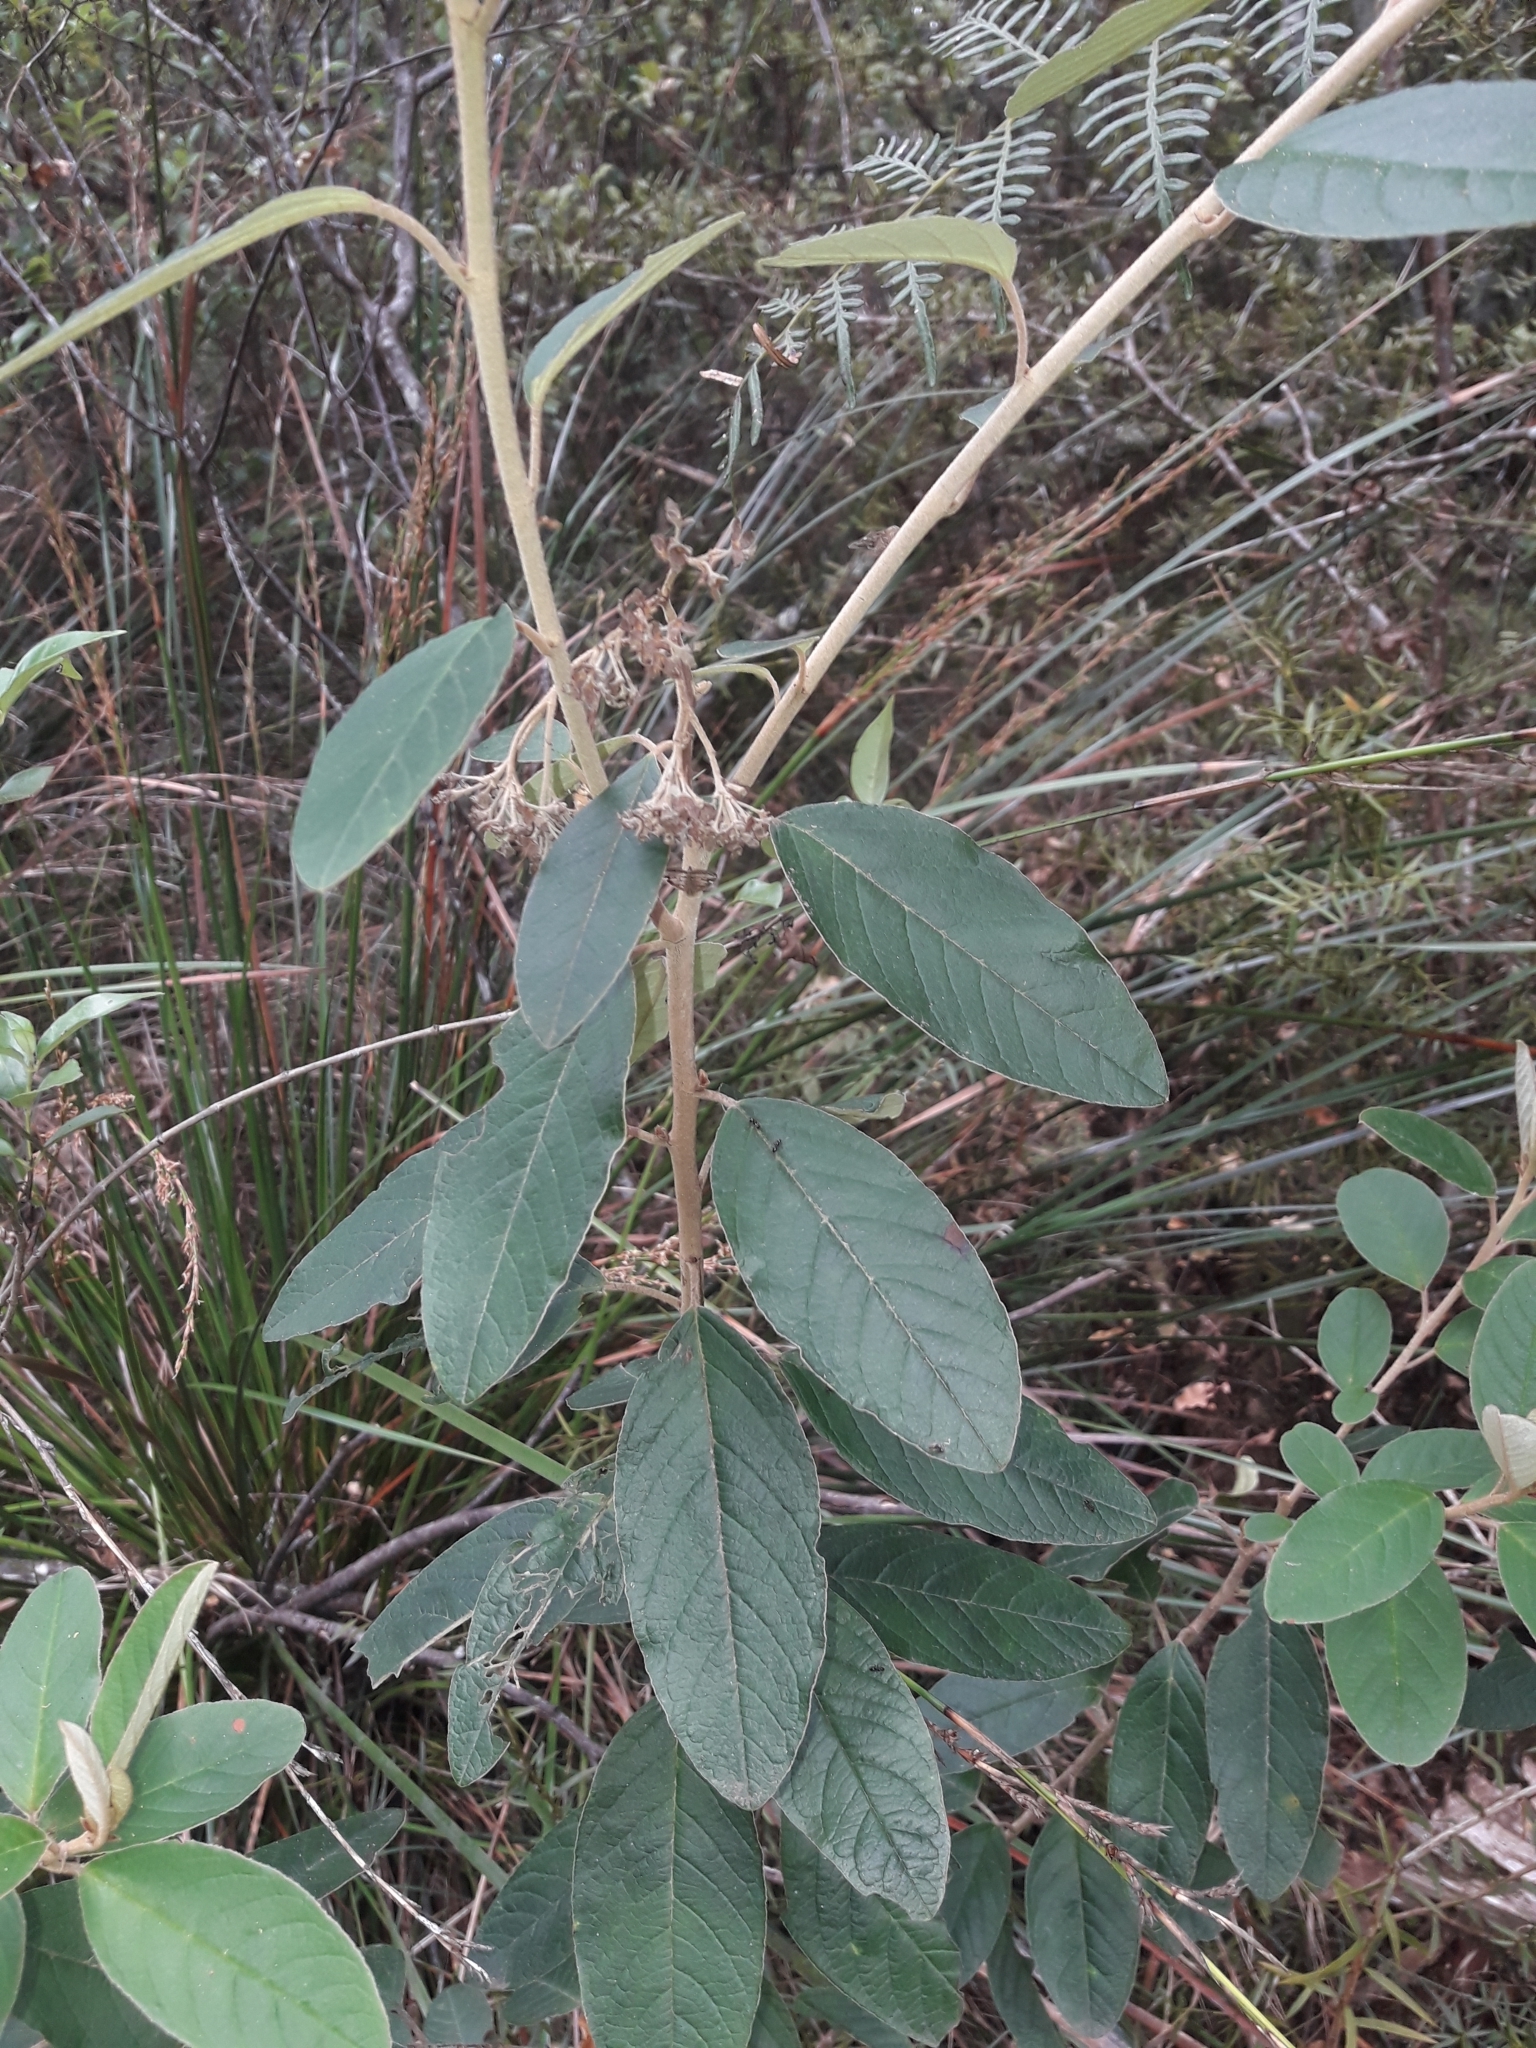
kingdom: Plantae
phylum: Tracheophyta
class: Magnoliopsida
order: Rosales
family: Rhamnaceae
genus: Pomaderris
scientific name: Pomaderris kumeraho
